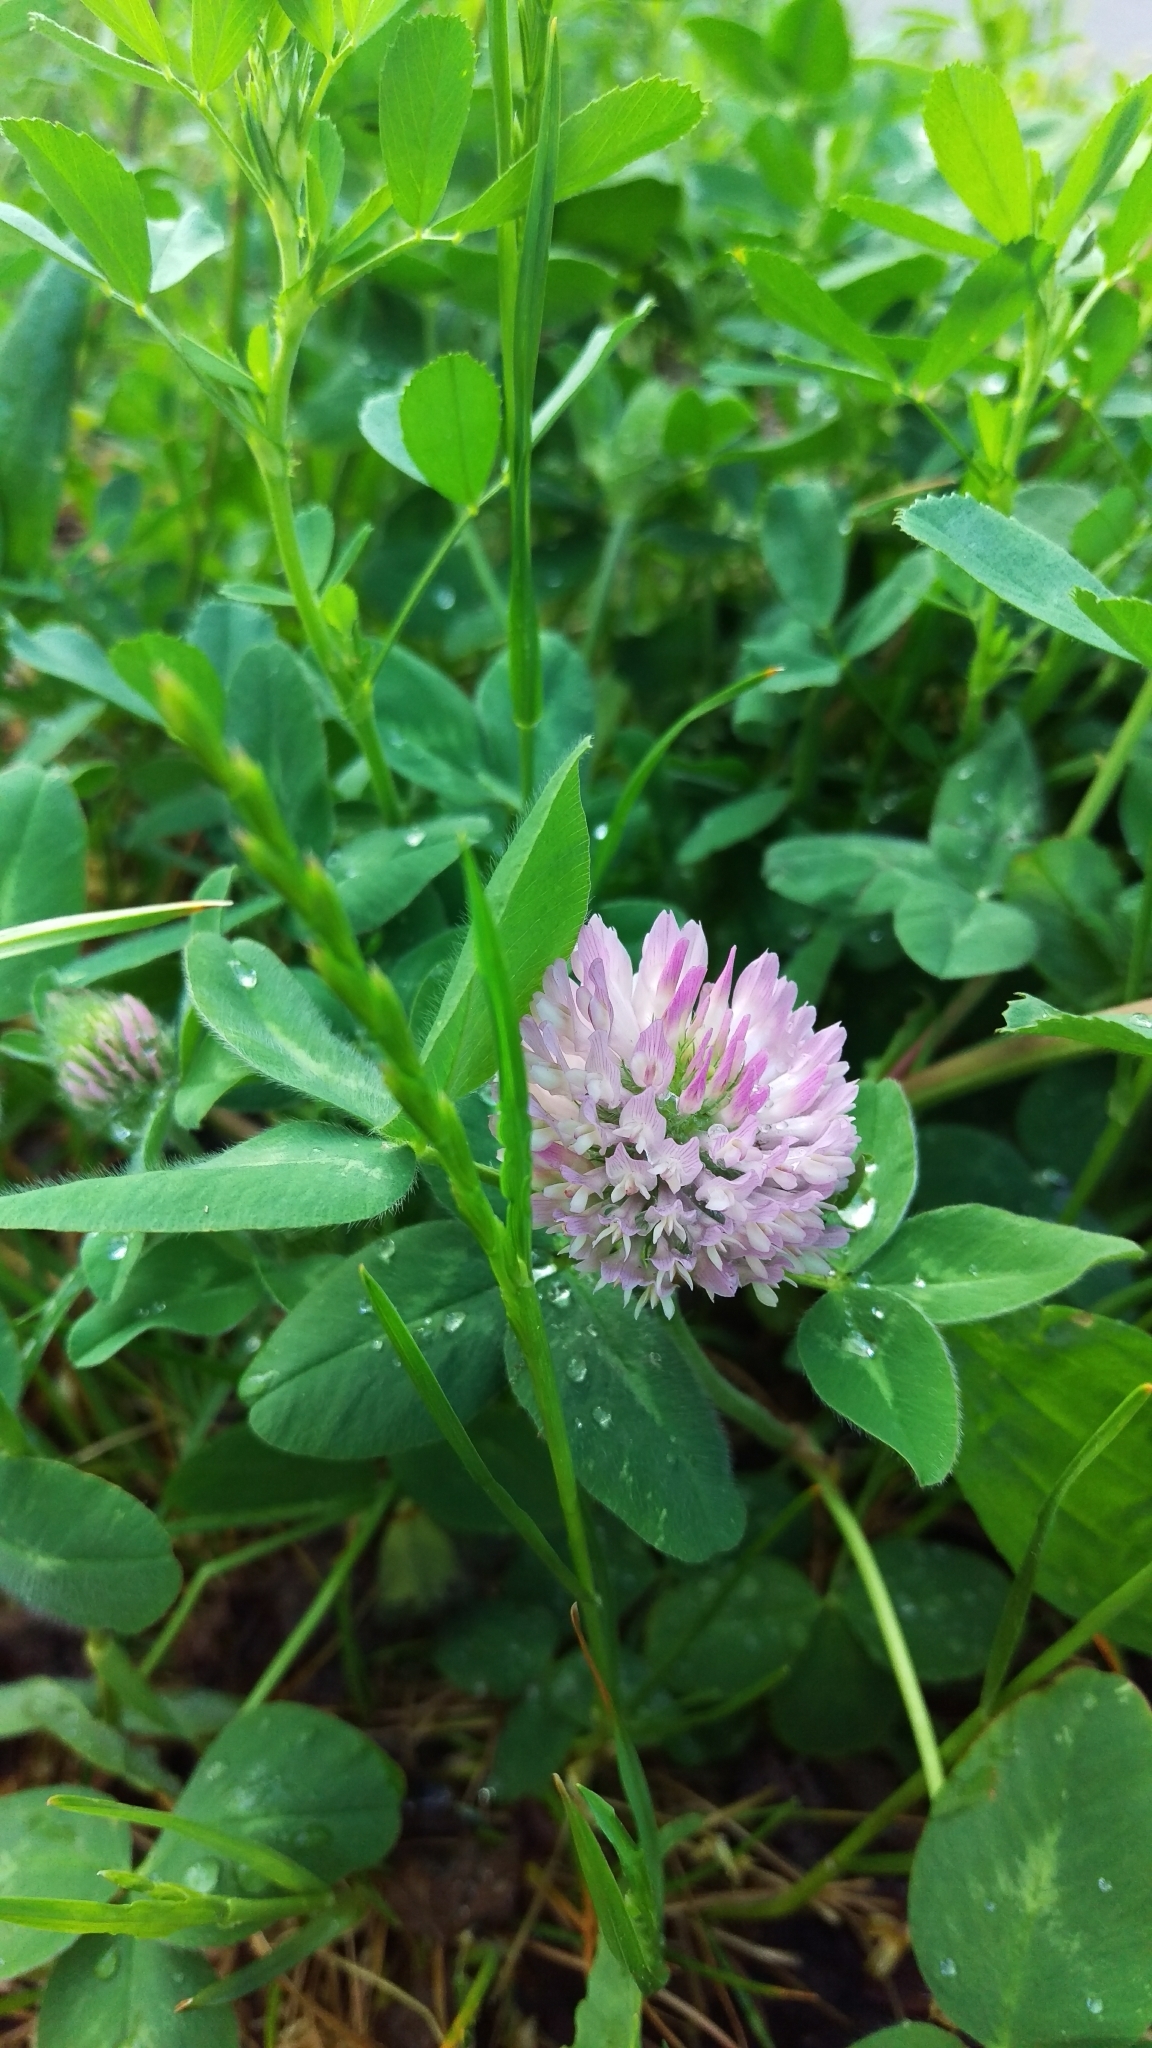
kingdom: Plantae
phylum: Tracheophyta
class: Magnoliopsida
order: Fabales
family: Fabaceae
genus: Trifolium
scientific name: Trifolium pratense
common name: Red clover
